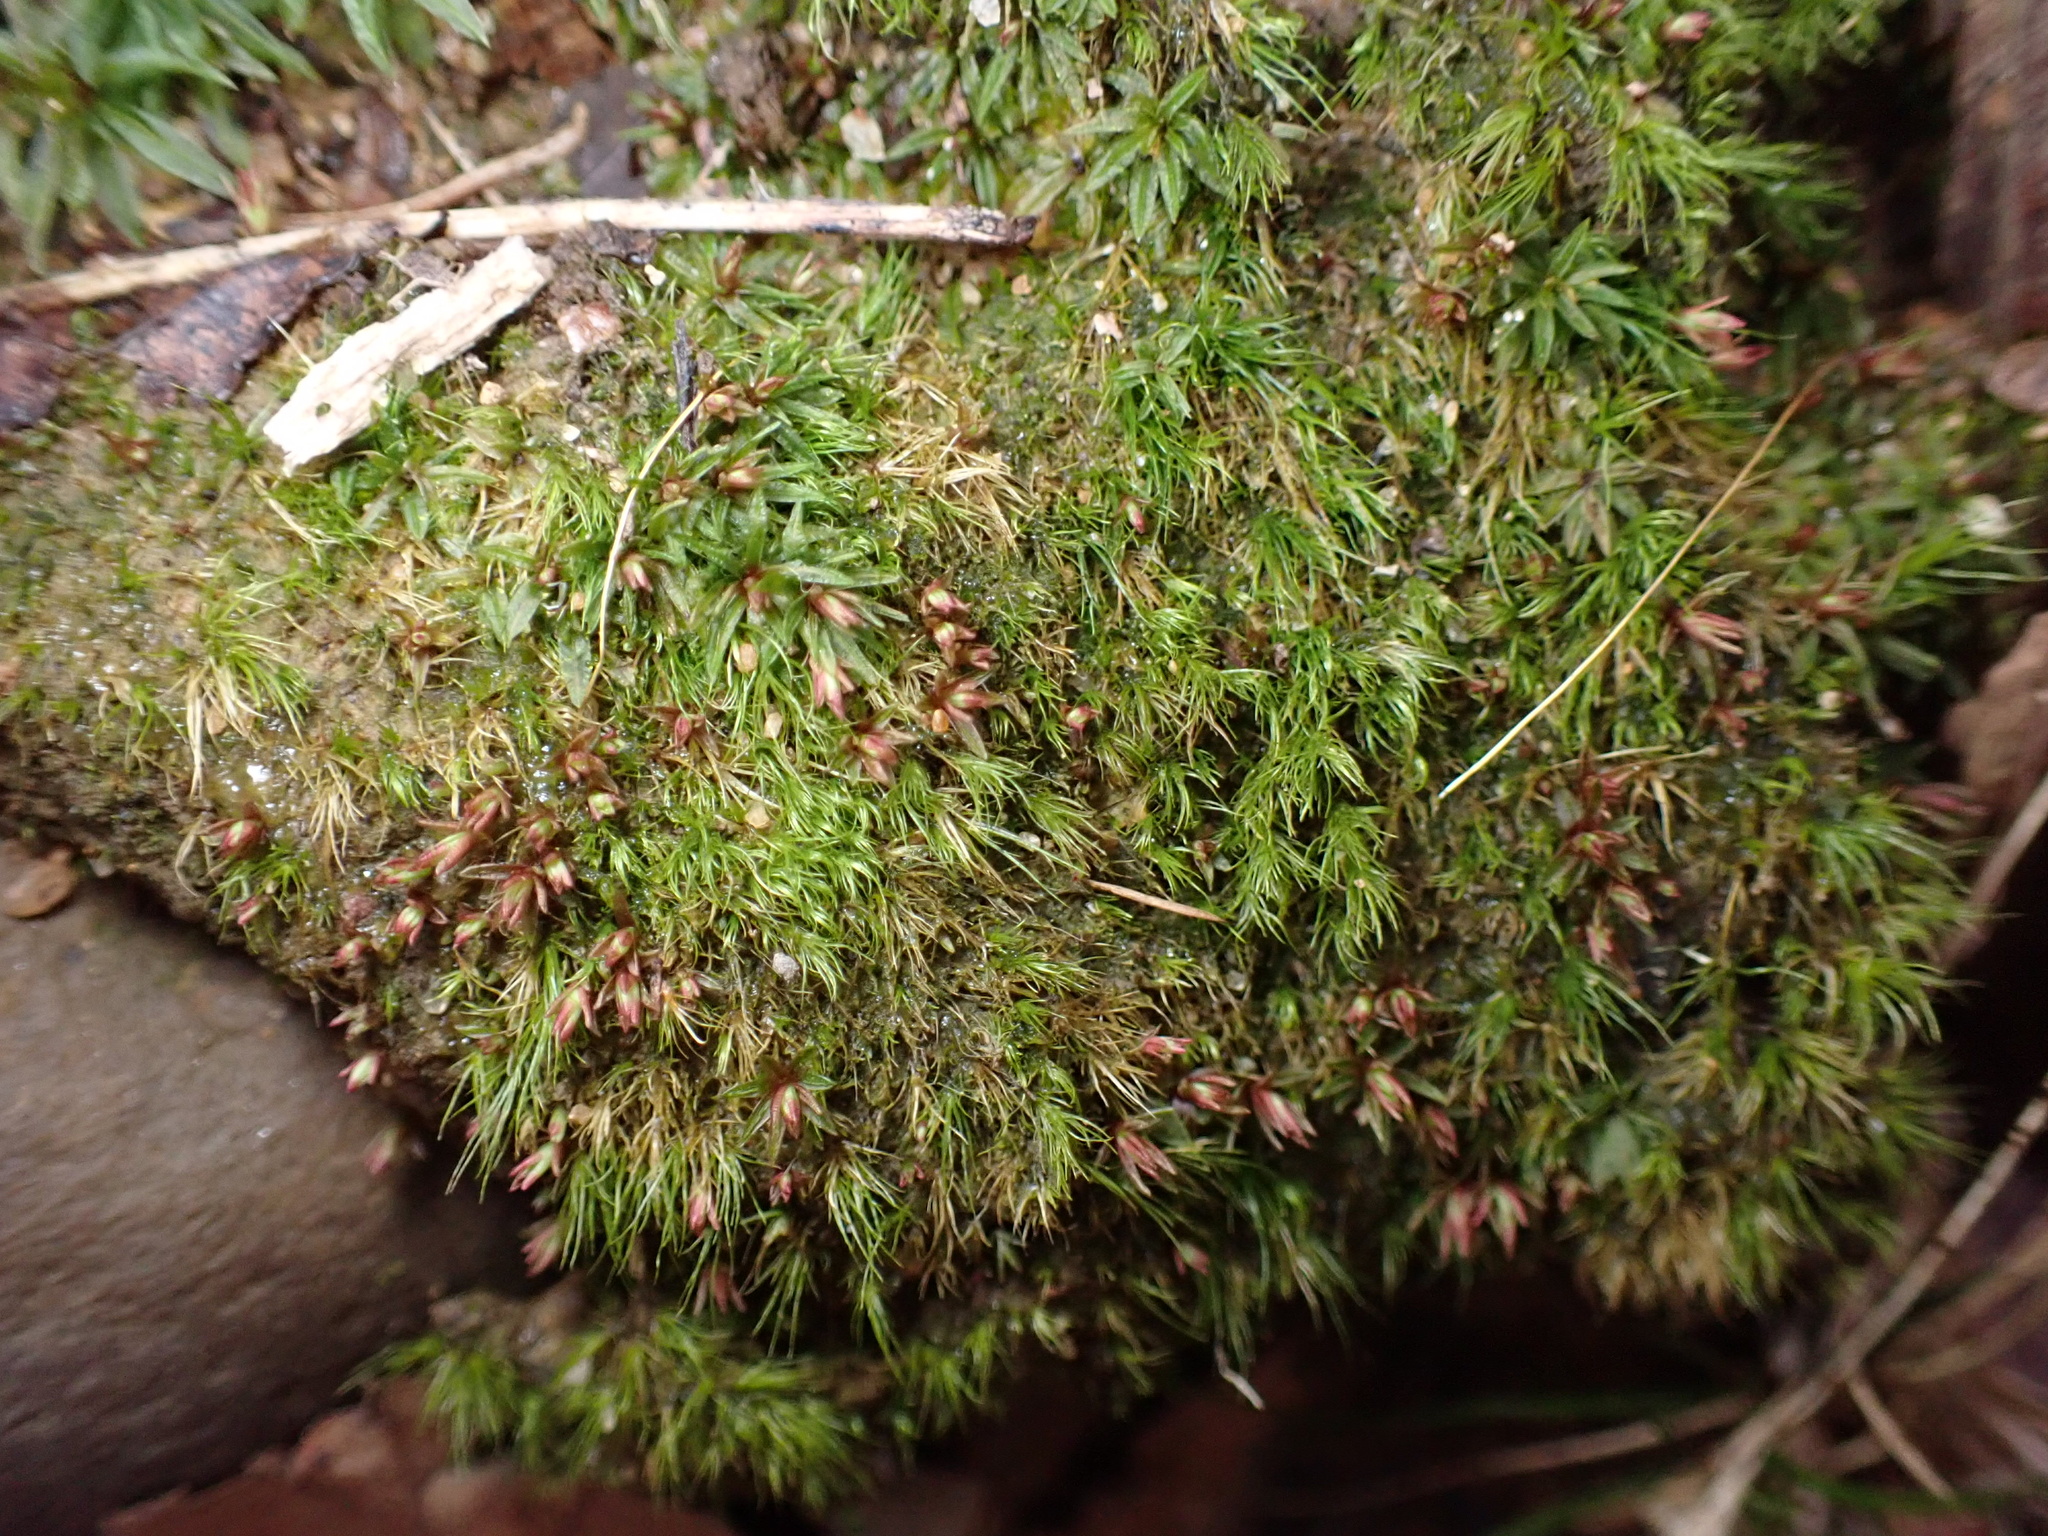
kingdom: Plantae
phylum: Bryophyta
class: Bryopsida
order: Dicranales
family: Dicranellaceae
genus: Dicranella
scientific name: Dicranella heteromalla
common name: Silky forklet moss
